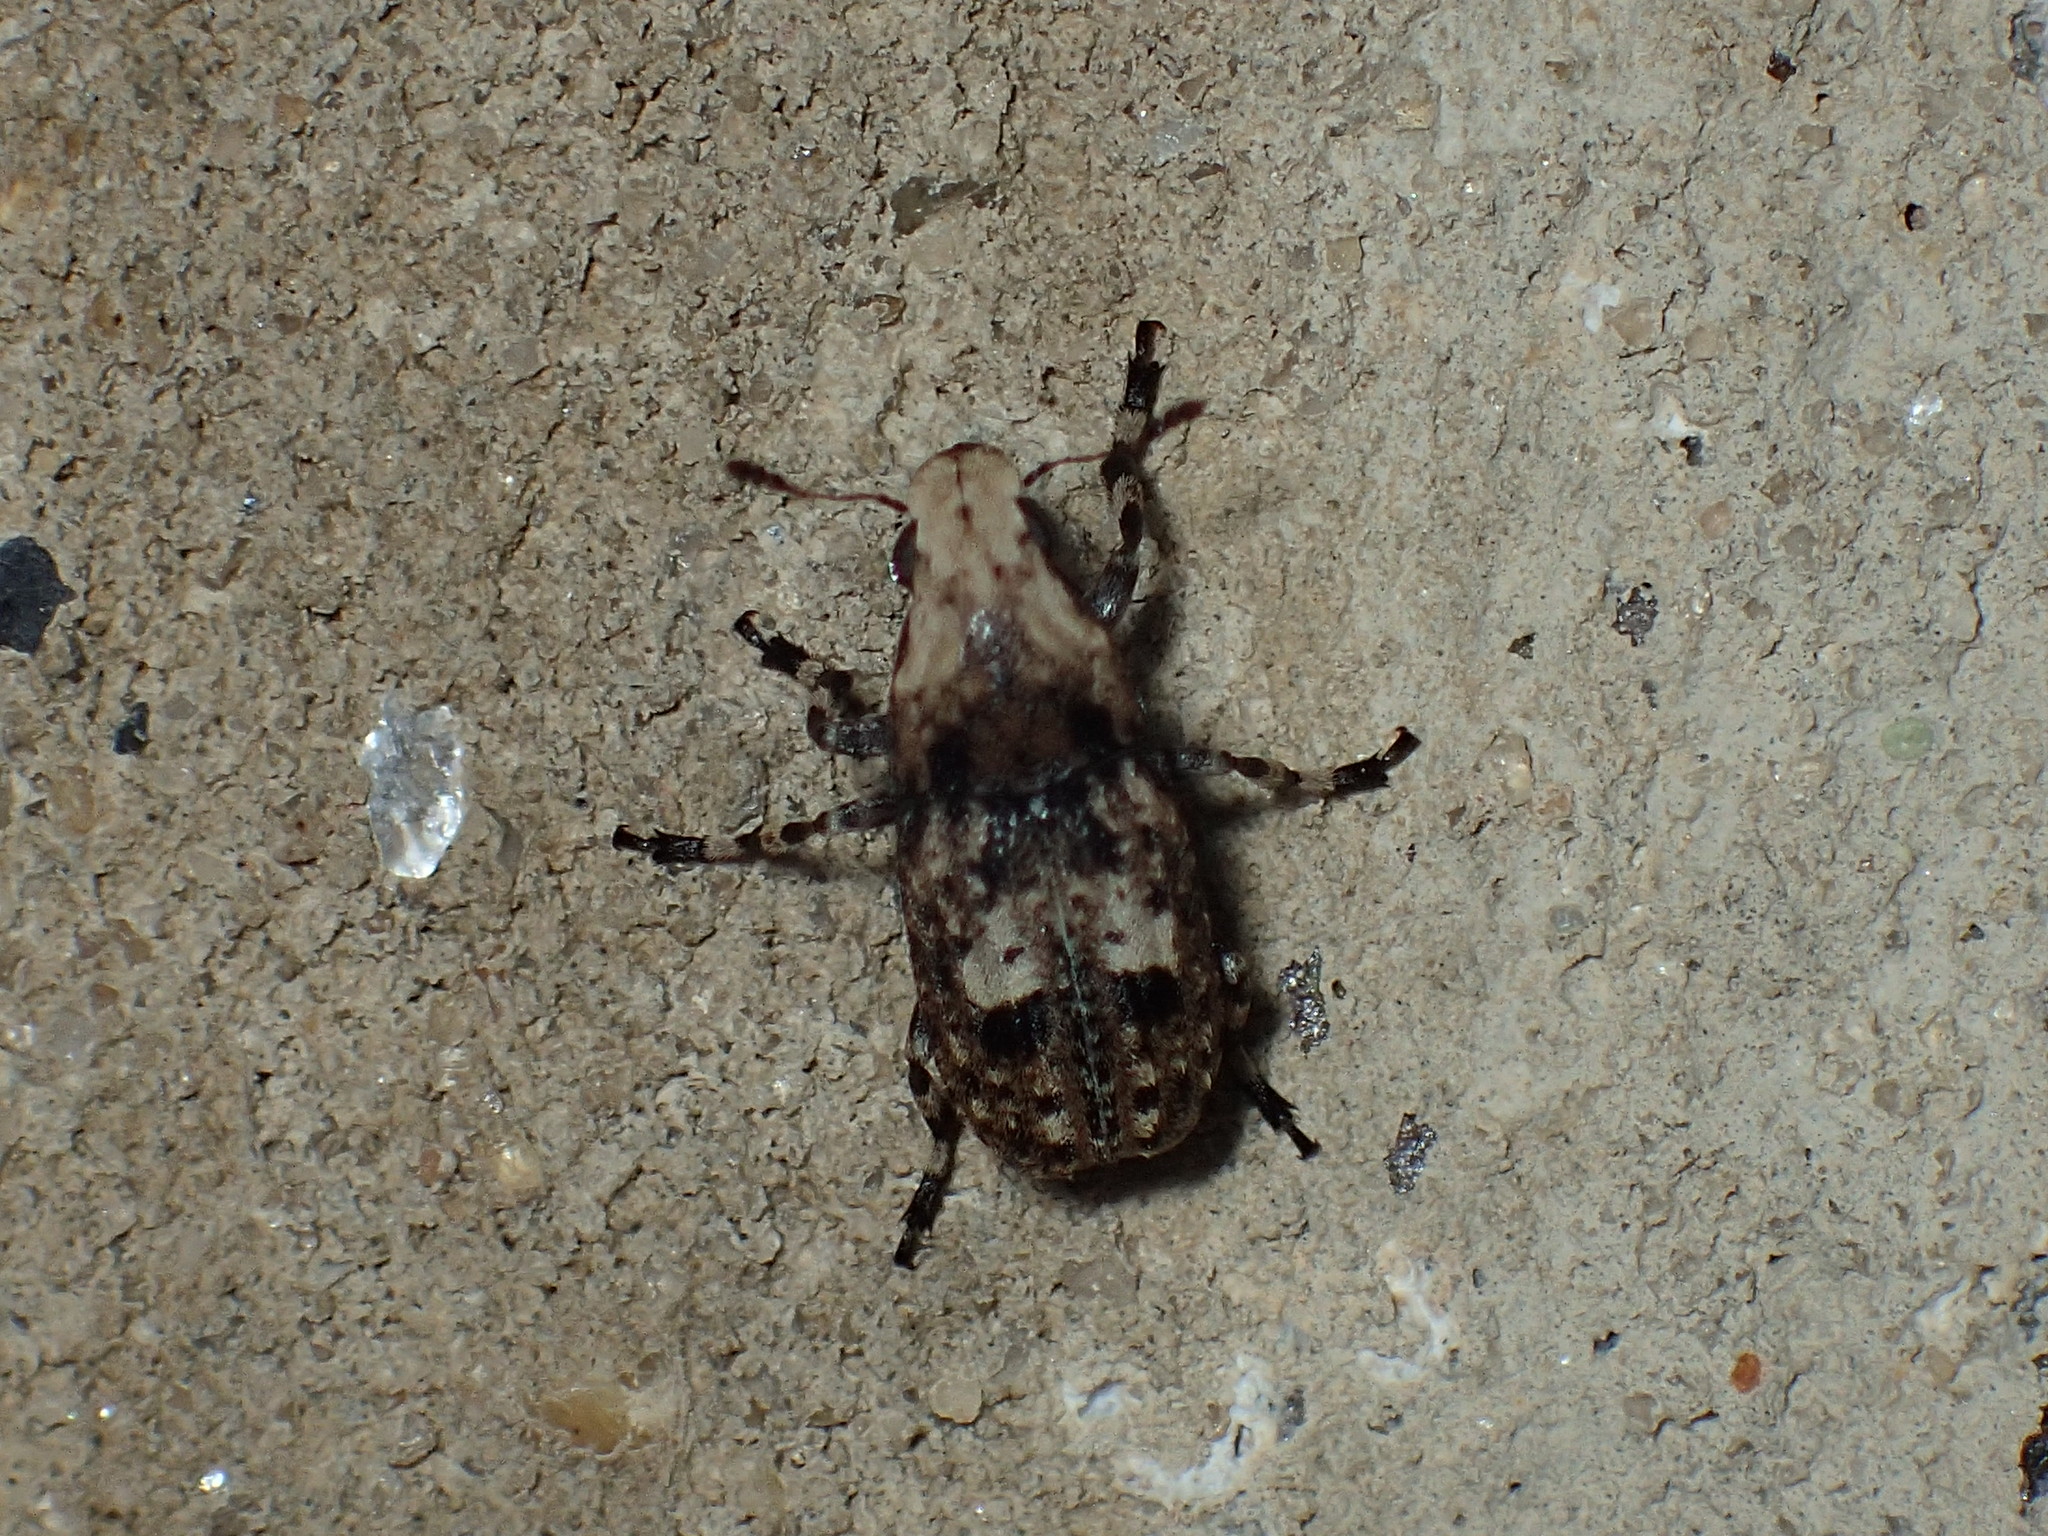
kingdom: Animalia
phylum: Arthropoda
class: Insecta
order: Coleoptera
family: Anthribidae
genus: Euparius
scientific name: Euparius marmoreus
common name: Marbled fungus weevil
